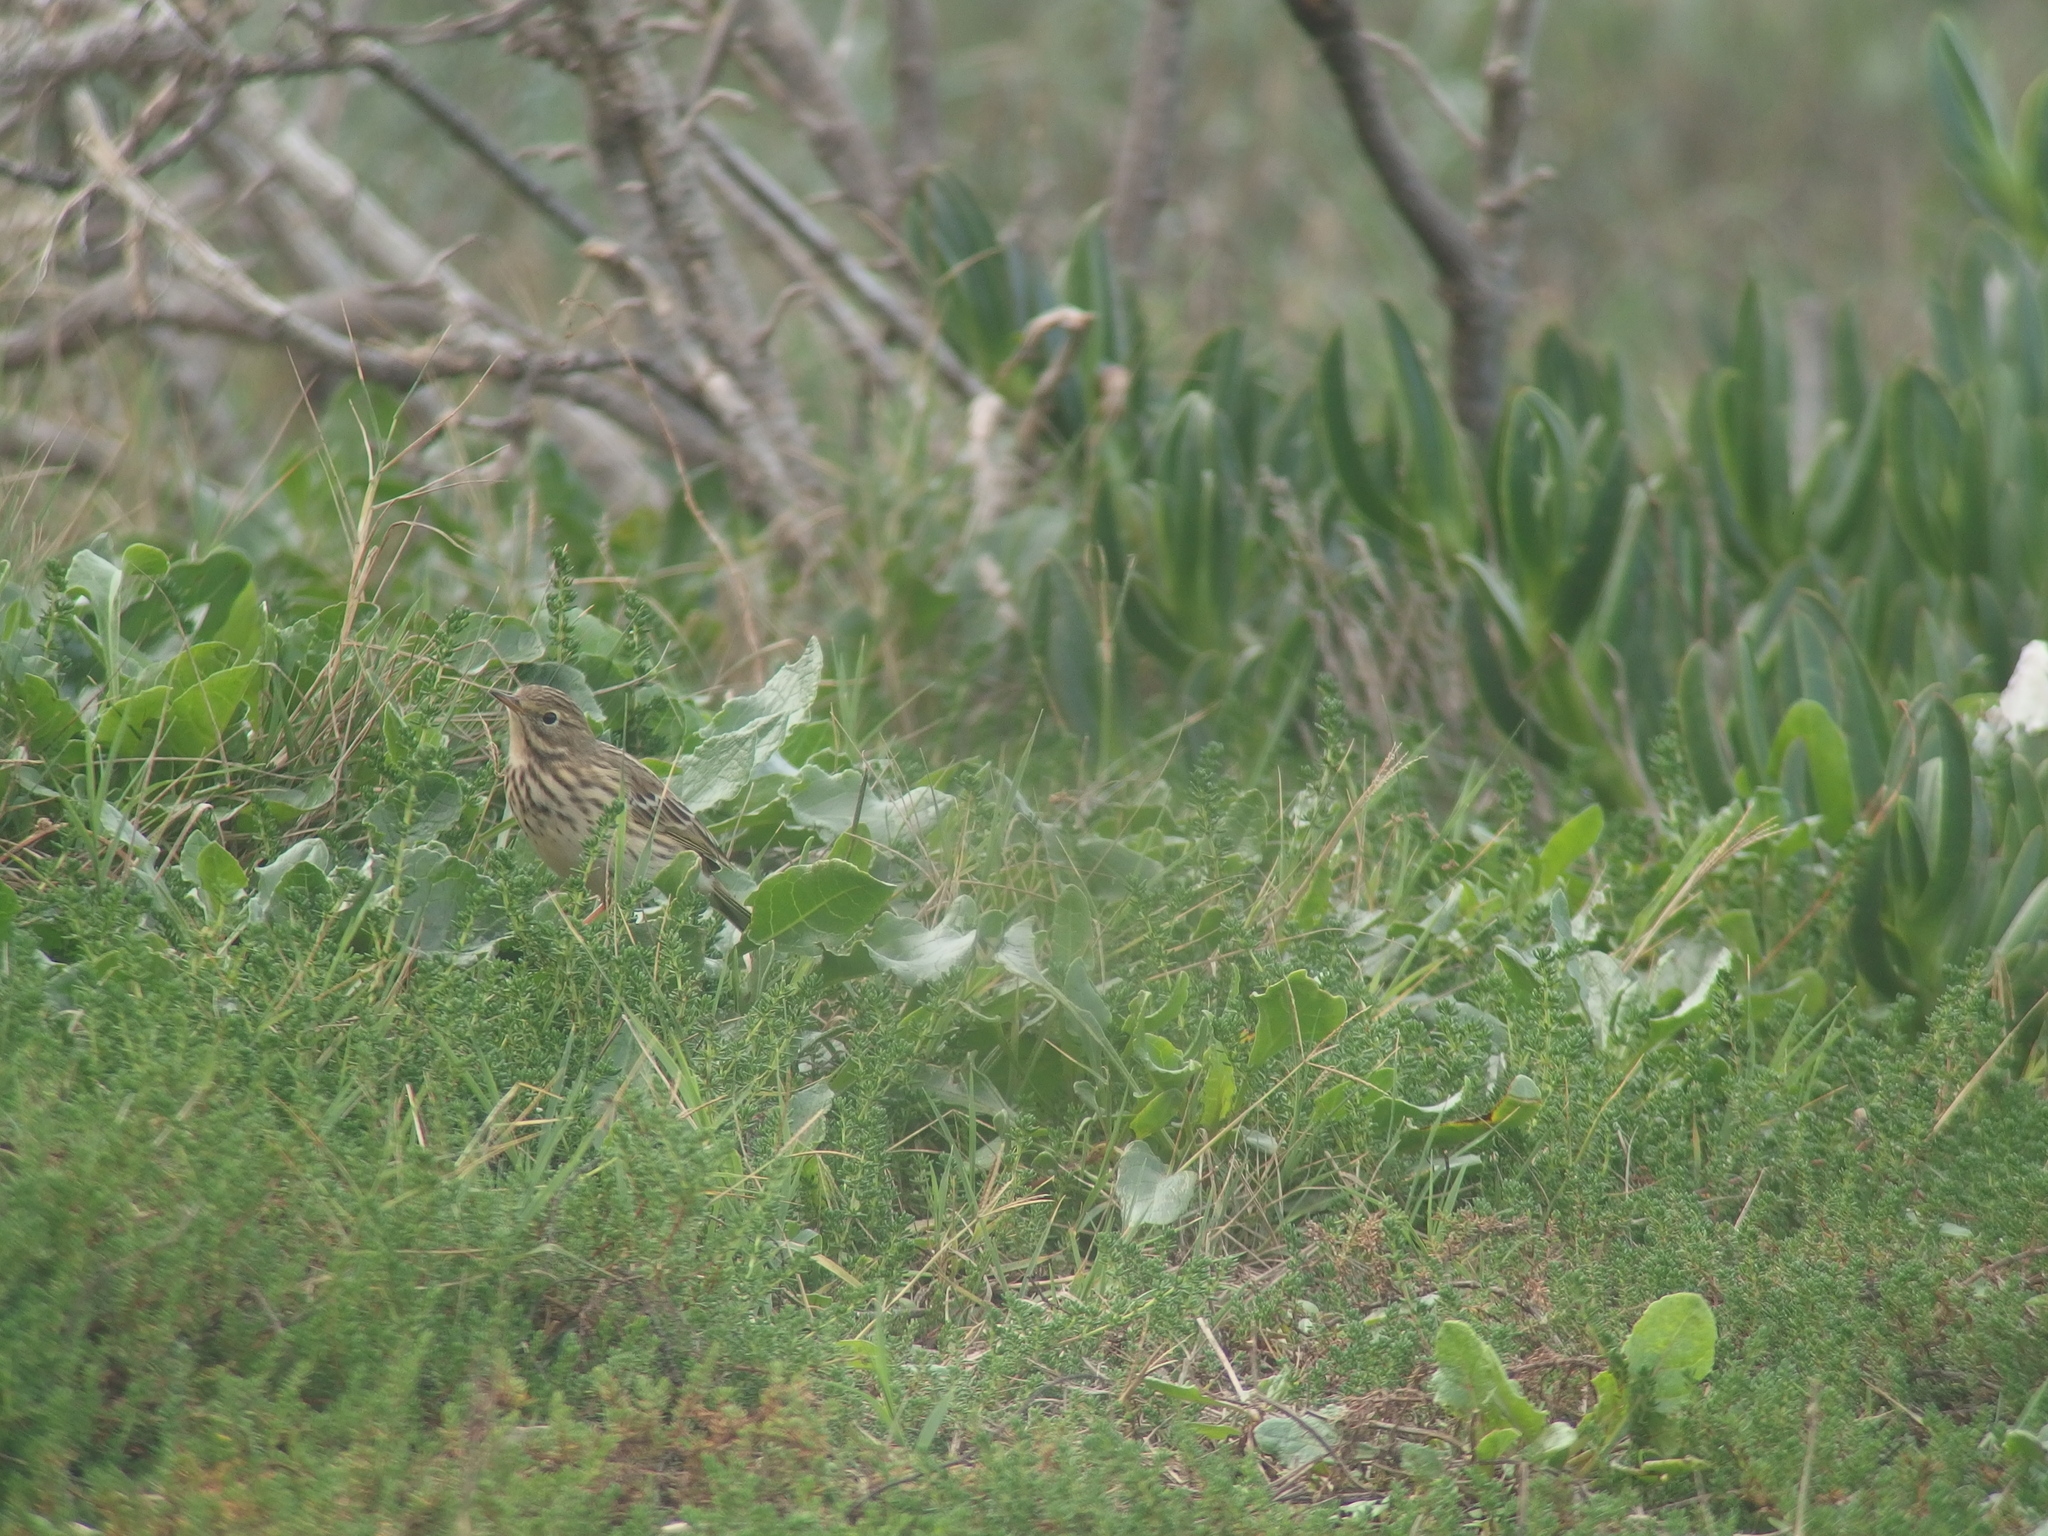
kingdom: Animalia
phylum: Chordata
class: Aves
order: Passeriformes
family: Motacillidae
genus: Anthus
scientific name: Anthus pratensis
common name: Meadow pipit
